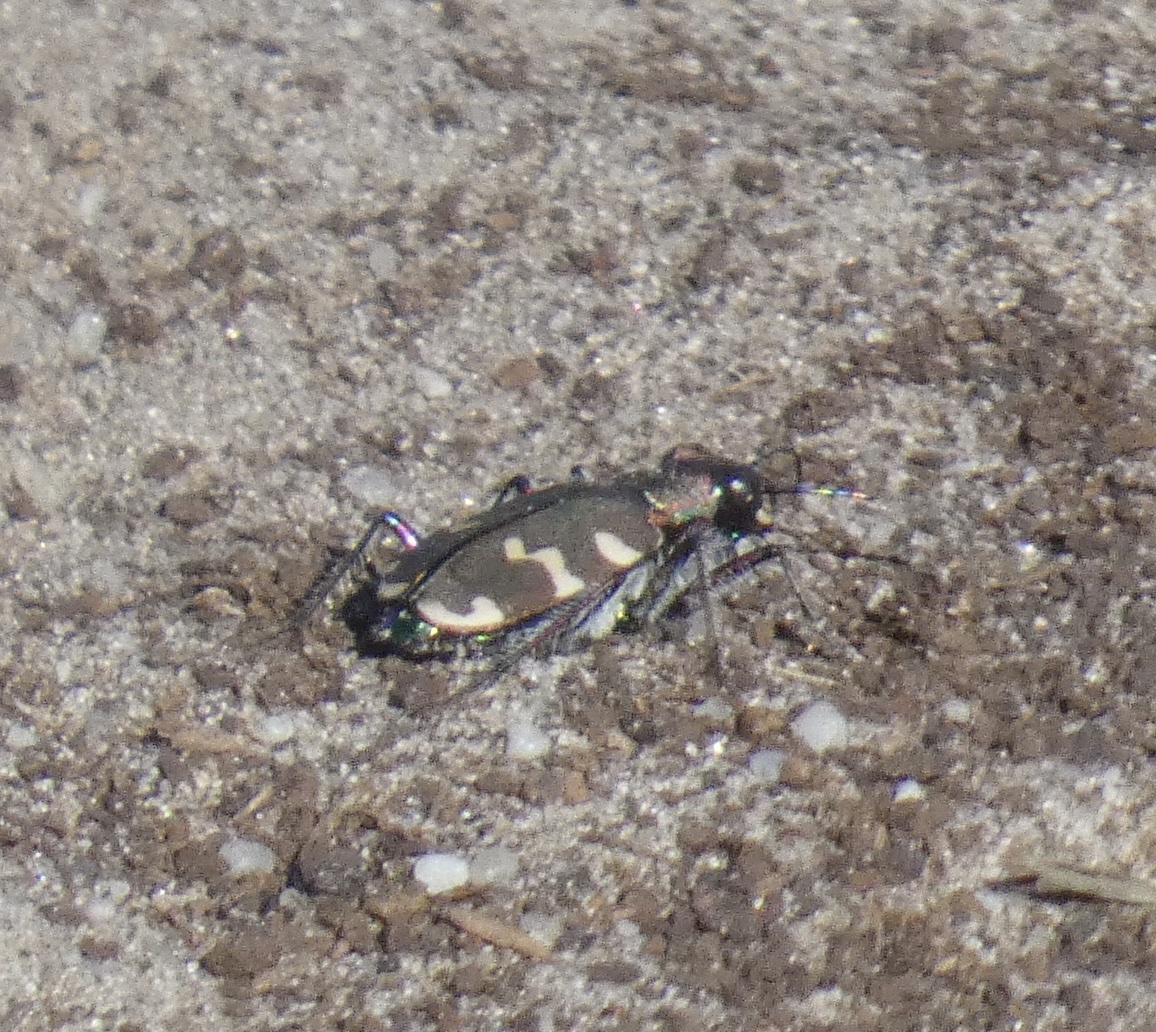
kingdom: Animalia
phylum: Arthropoda
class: Insecta
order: Coleoptera
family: Carabidae
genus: Cicindela
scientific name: Cicindela hybrida
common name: Northern dune tiger beetle
